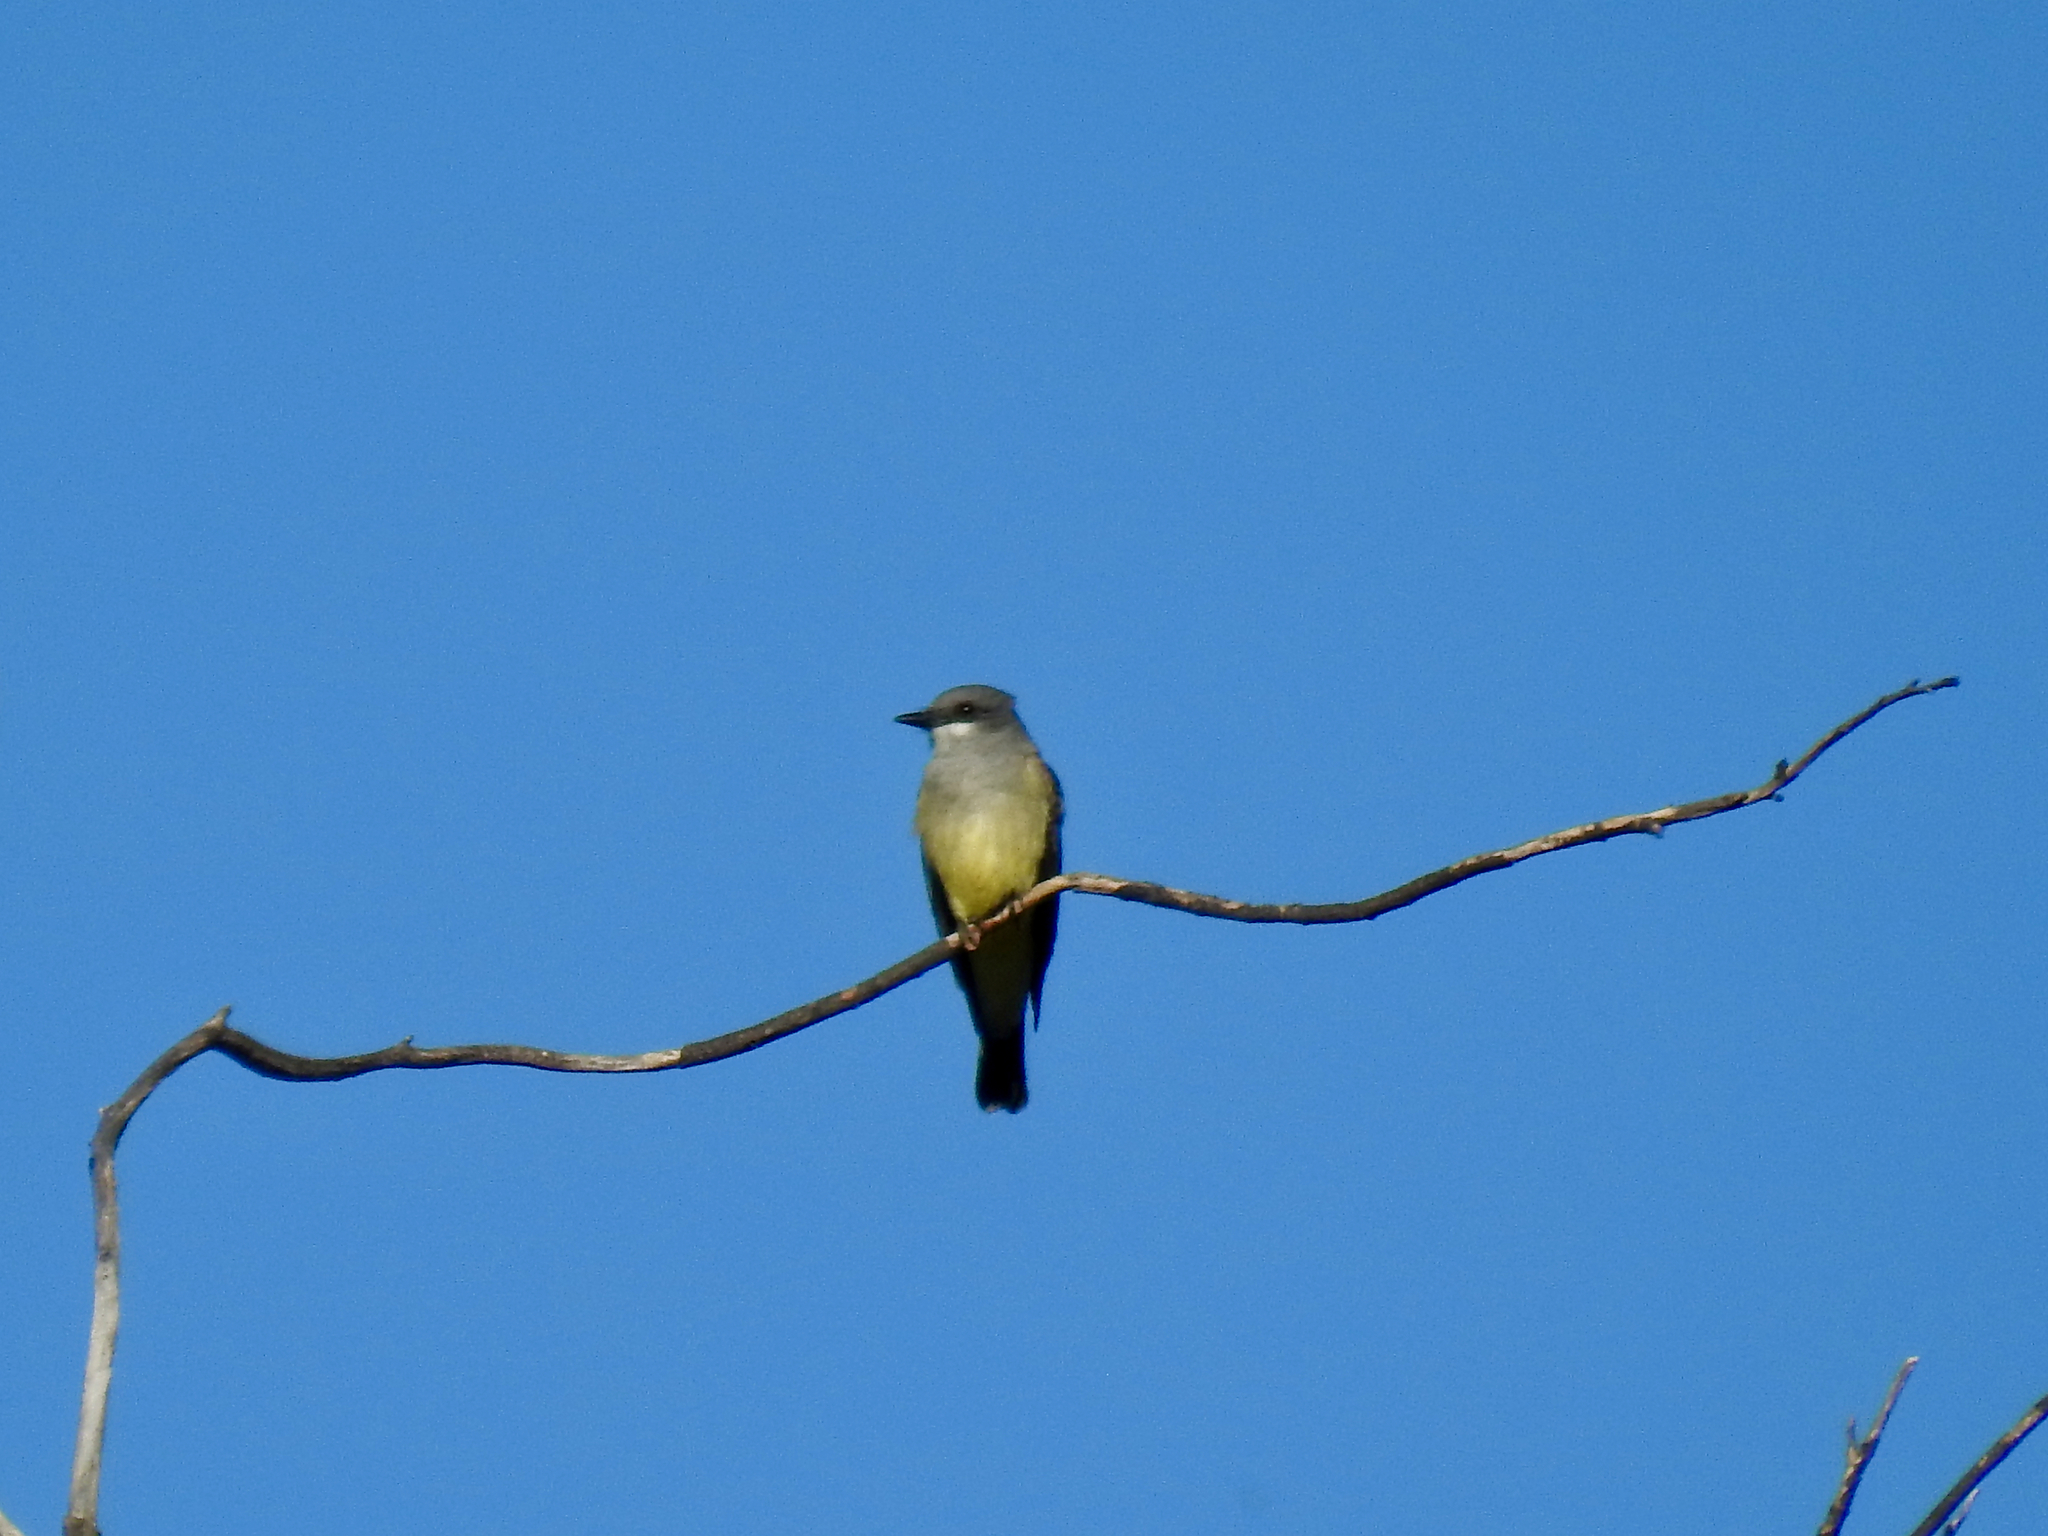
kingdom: Animalia
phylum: Chordata
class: Aves
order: Passeriformes
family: Tyrannidae
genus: Tyrannus
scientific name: Tyrannus vociferans
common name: Cassin's kingbird
